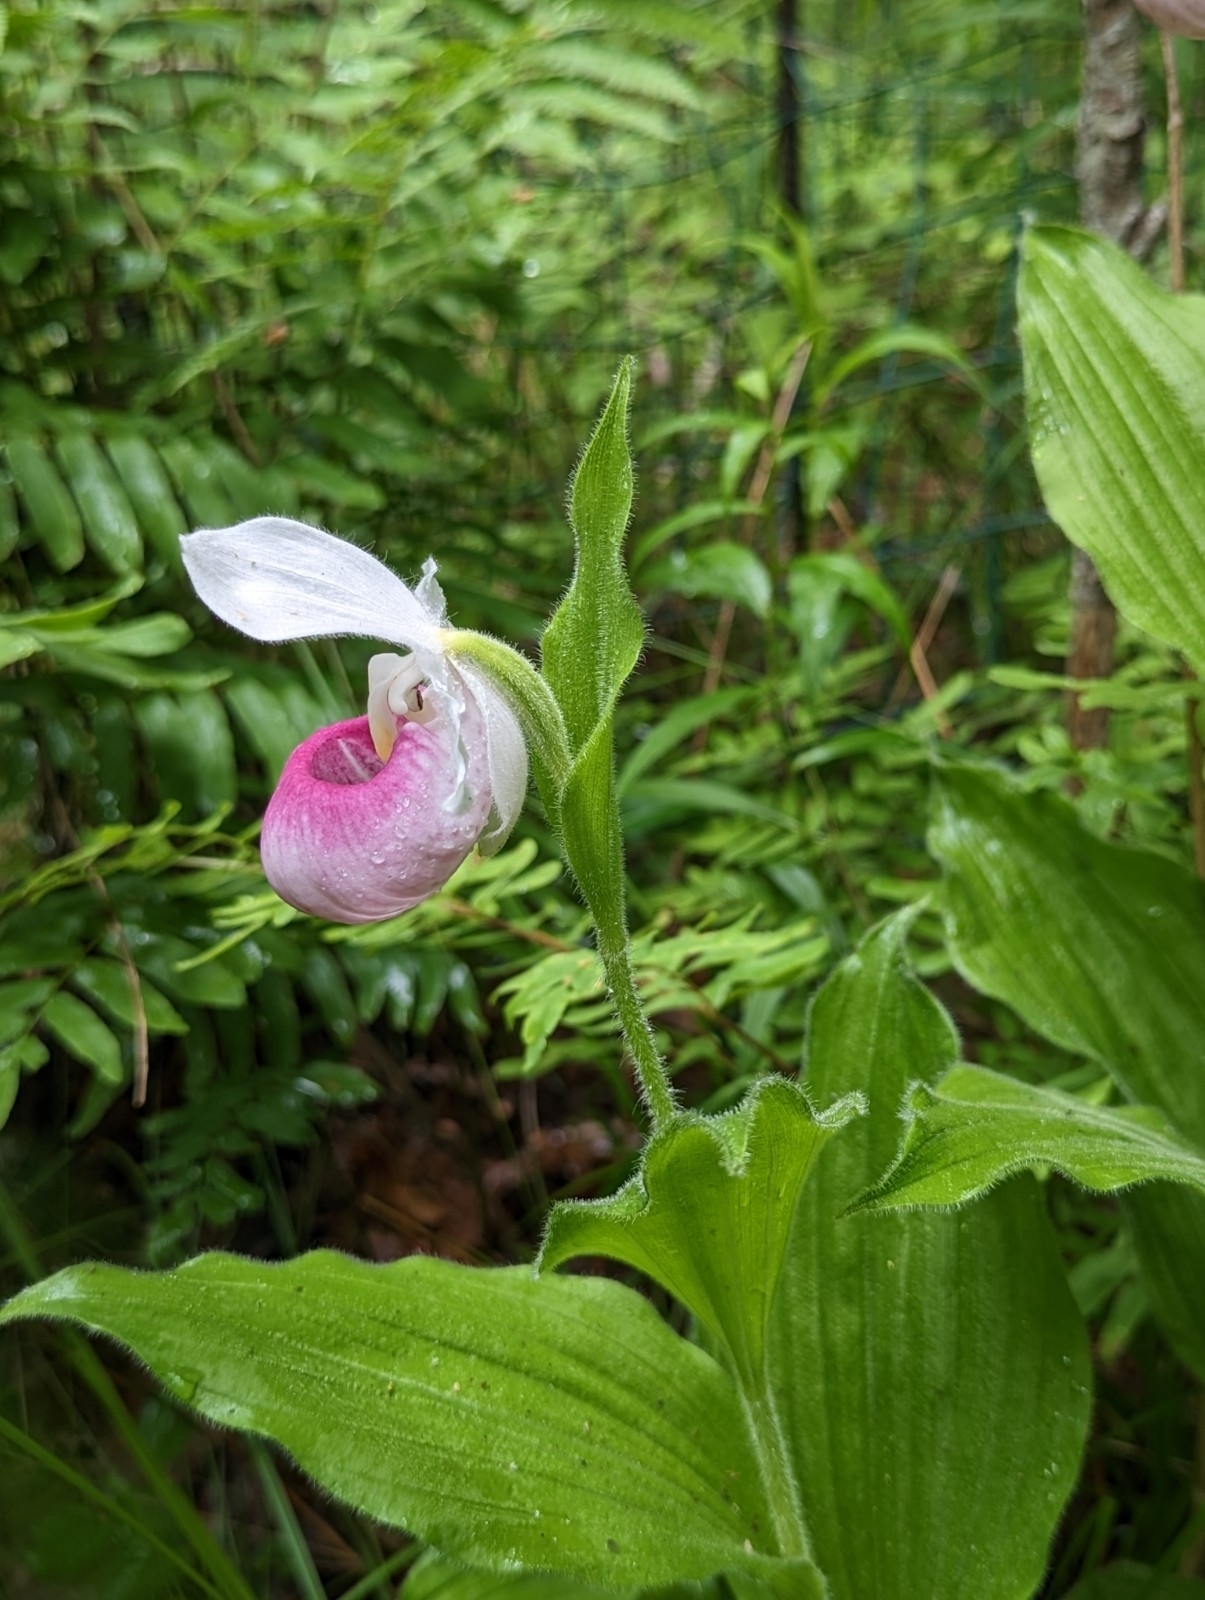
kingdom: Plantae
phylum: Tracheophyta
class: Liliopsida
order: Asparagales
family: Orchidaceae
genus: Cypripedium
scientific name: Cypripedium reginae
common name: Queen lady's-slipper
